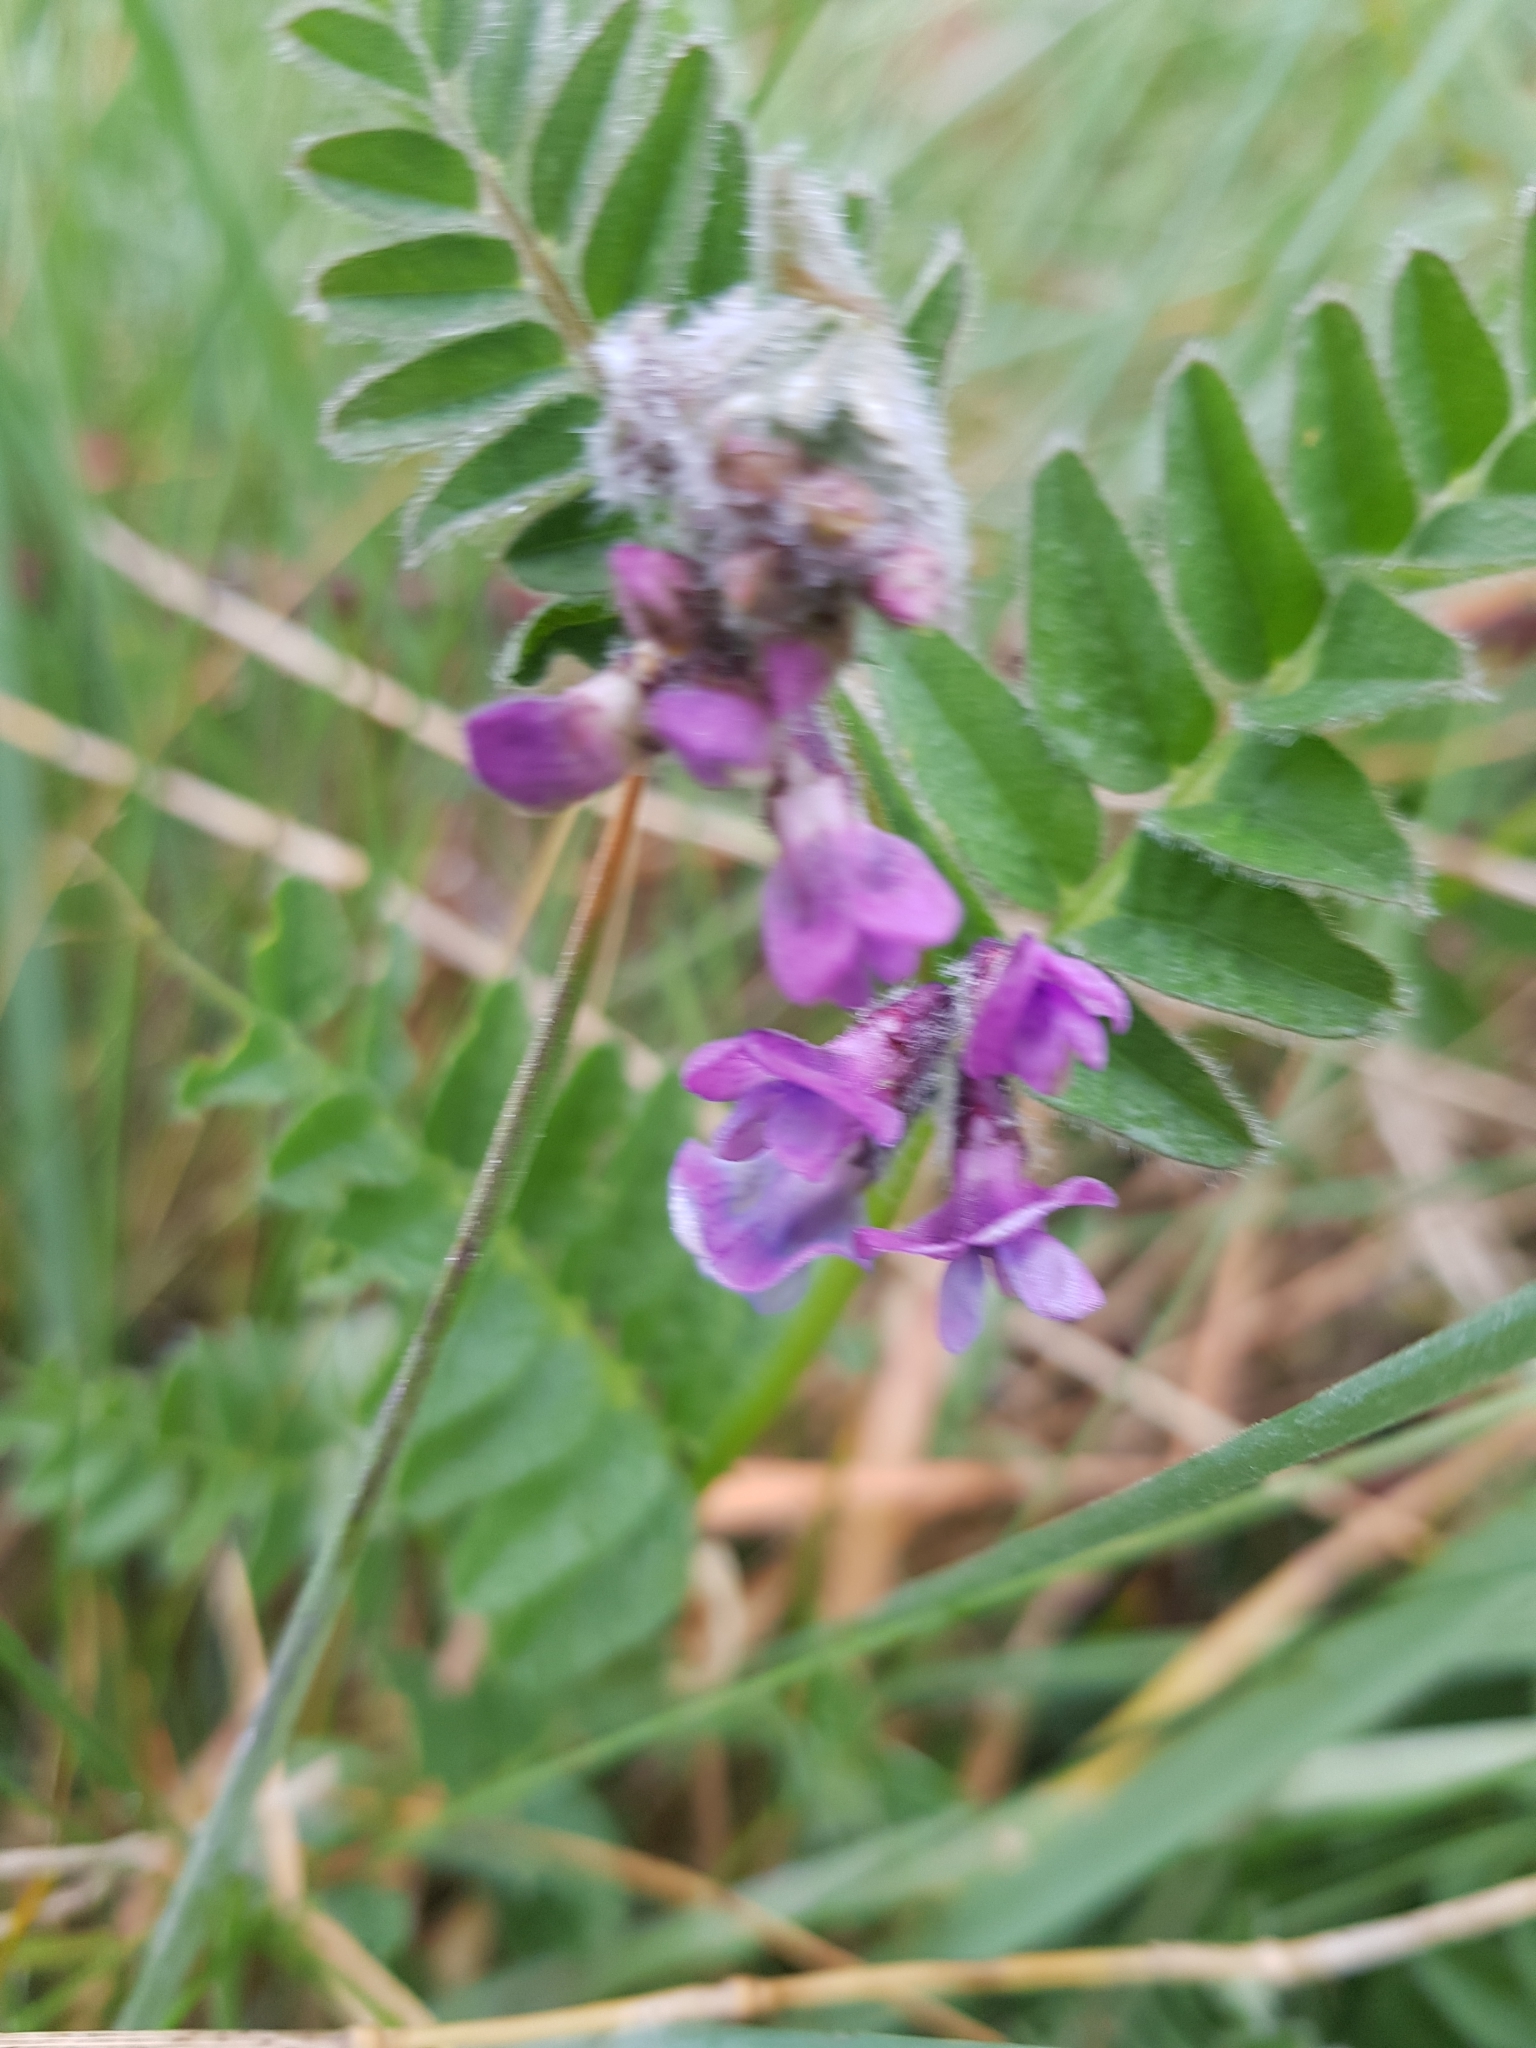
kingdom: Plantae
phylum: Tracheophyta
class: Magnoliopsida
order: Fabales
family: Fabaceae
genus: Vicia
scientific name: Vicia sepium
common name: Bush vetch
